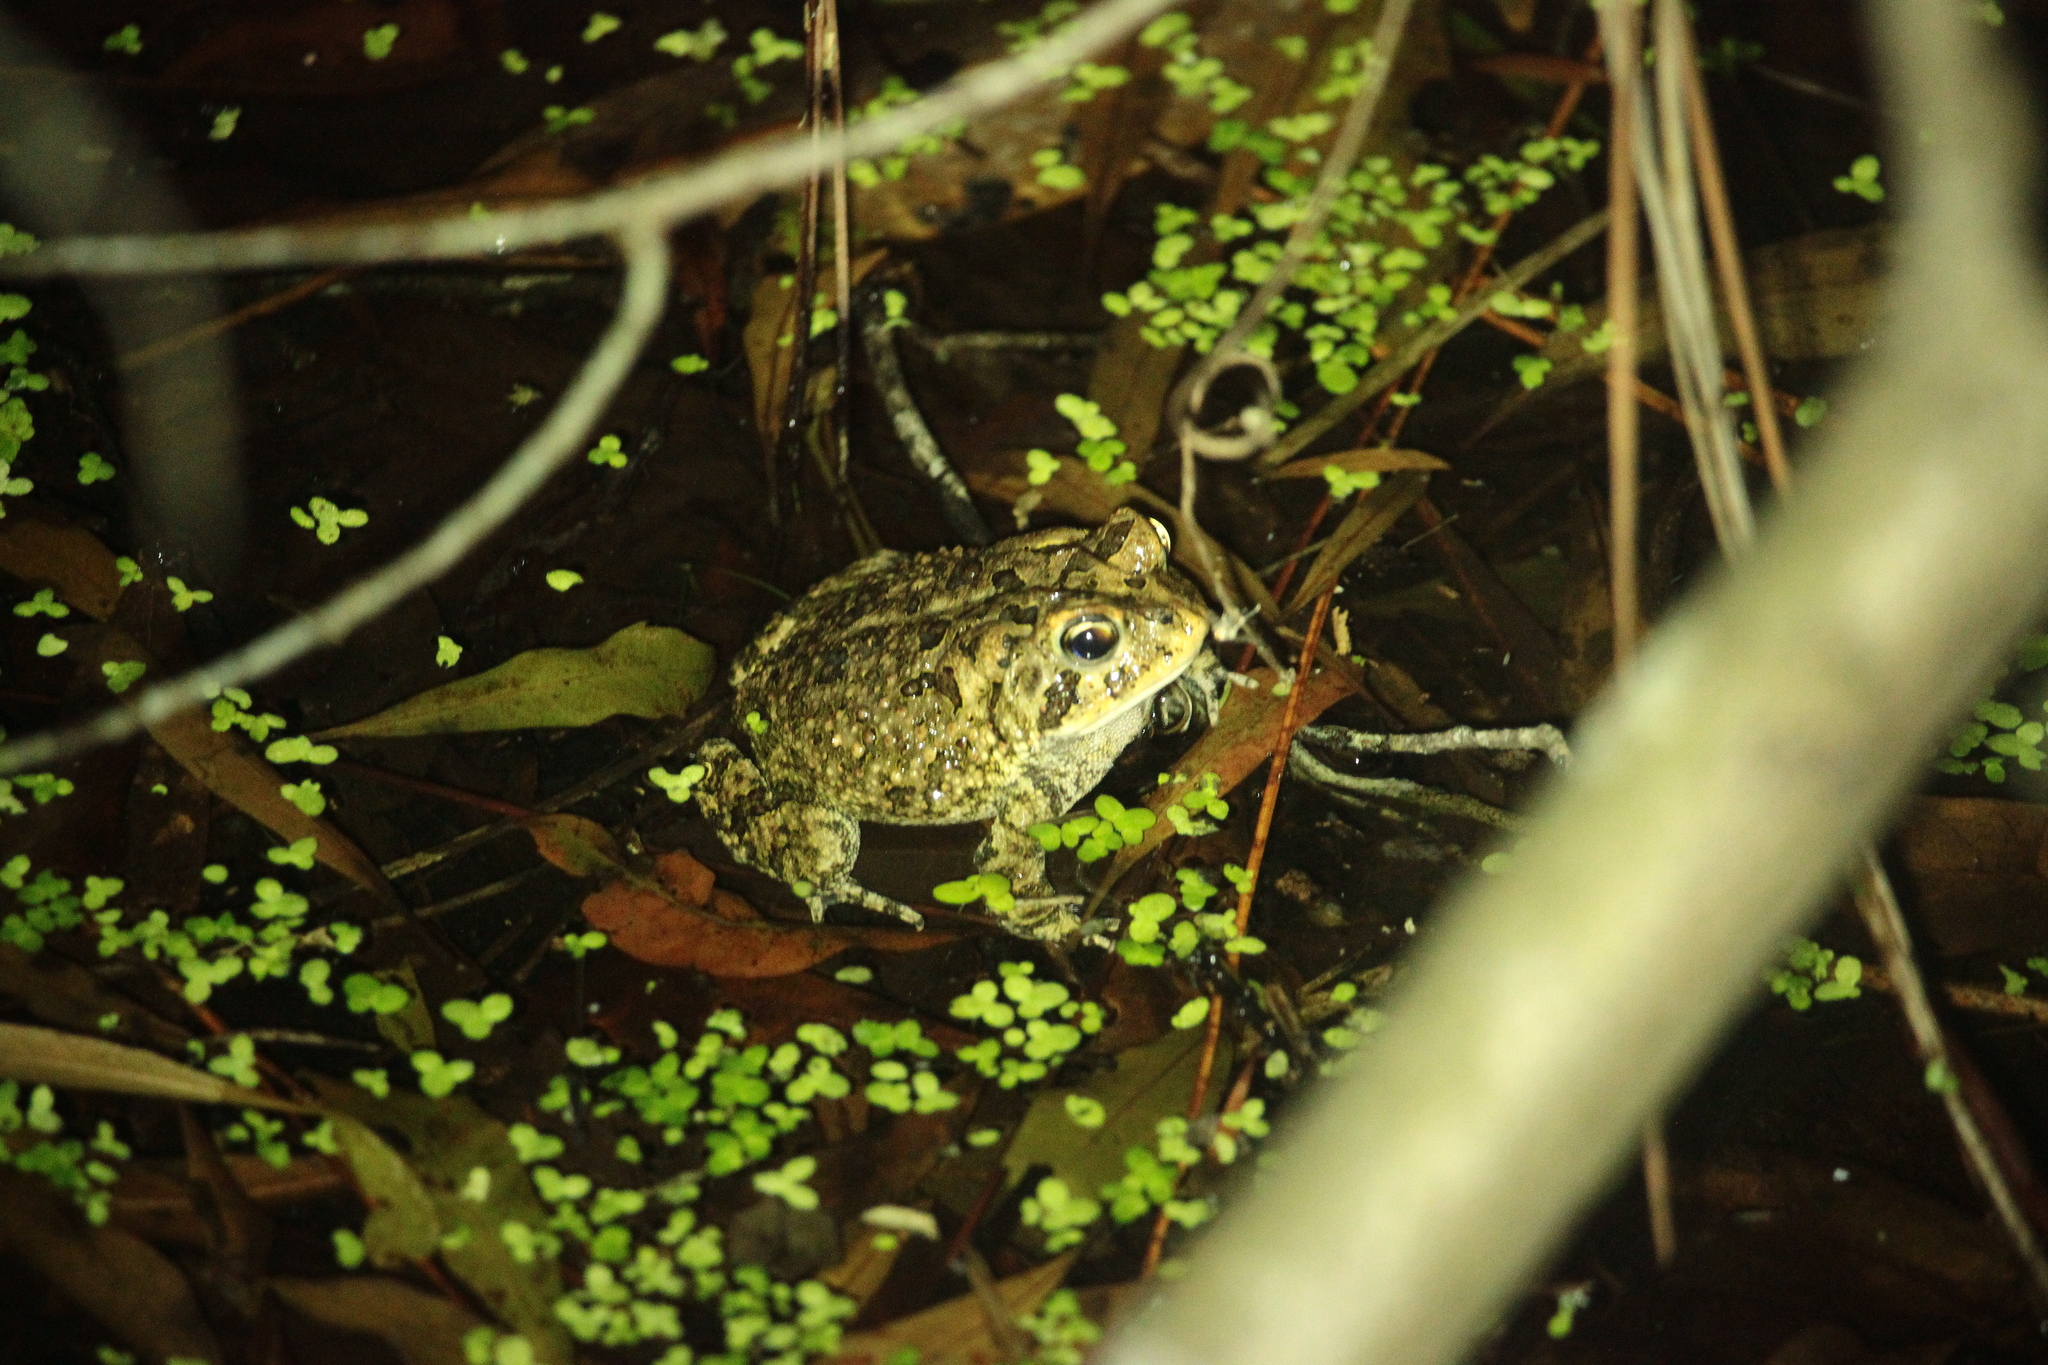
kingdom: Animalia
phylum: Chordata
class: Amphibia
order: Anura
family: Bufonidae
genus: Anaxyrus
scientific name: Anaxyrus terrestris
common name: Southern toad
